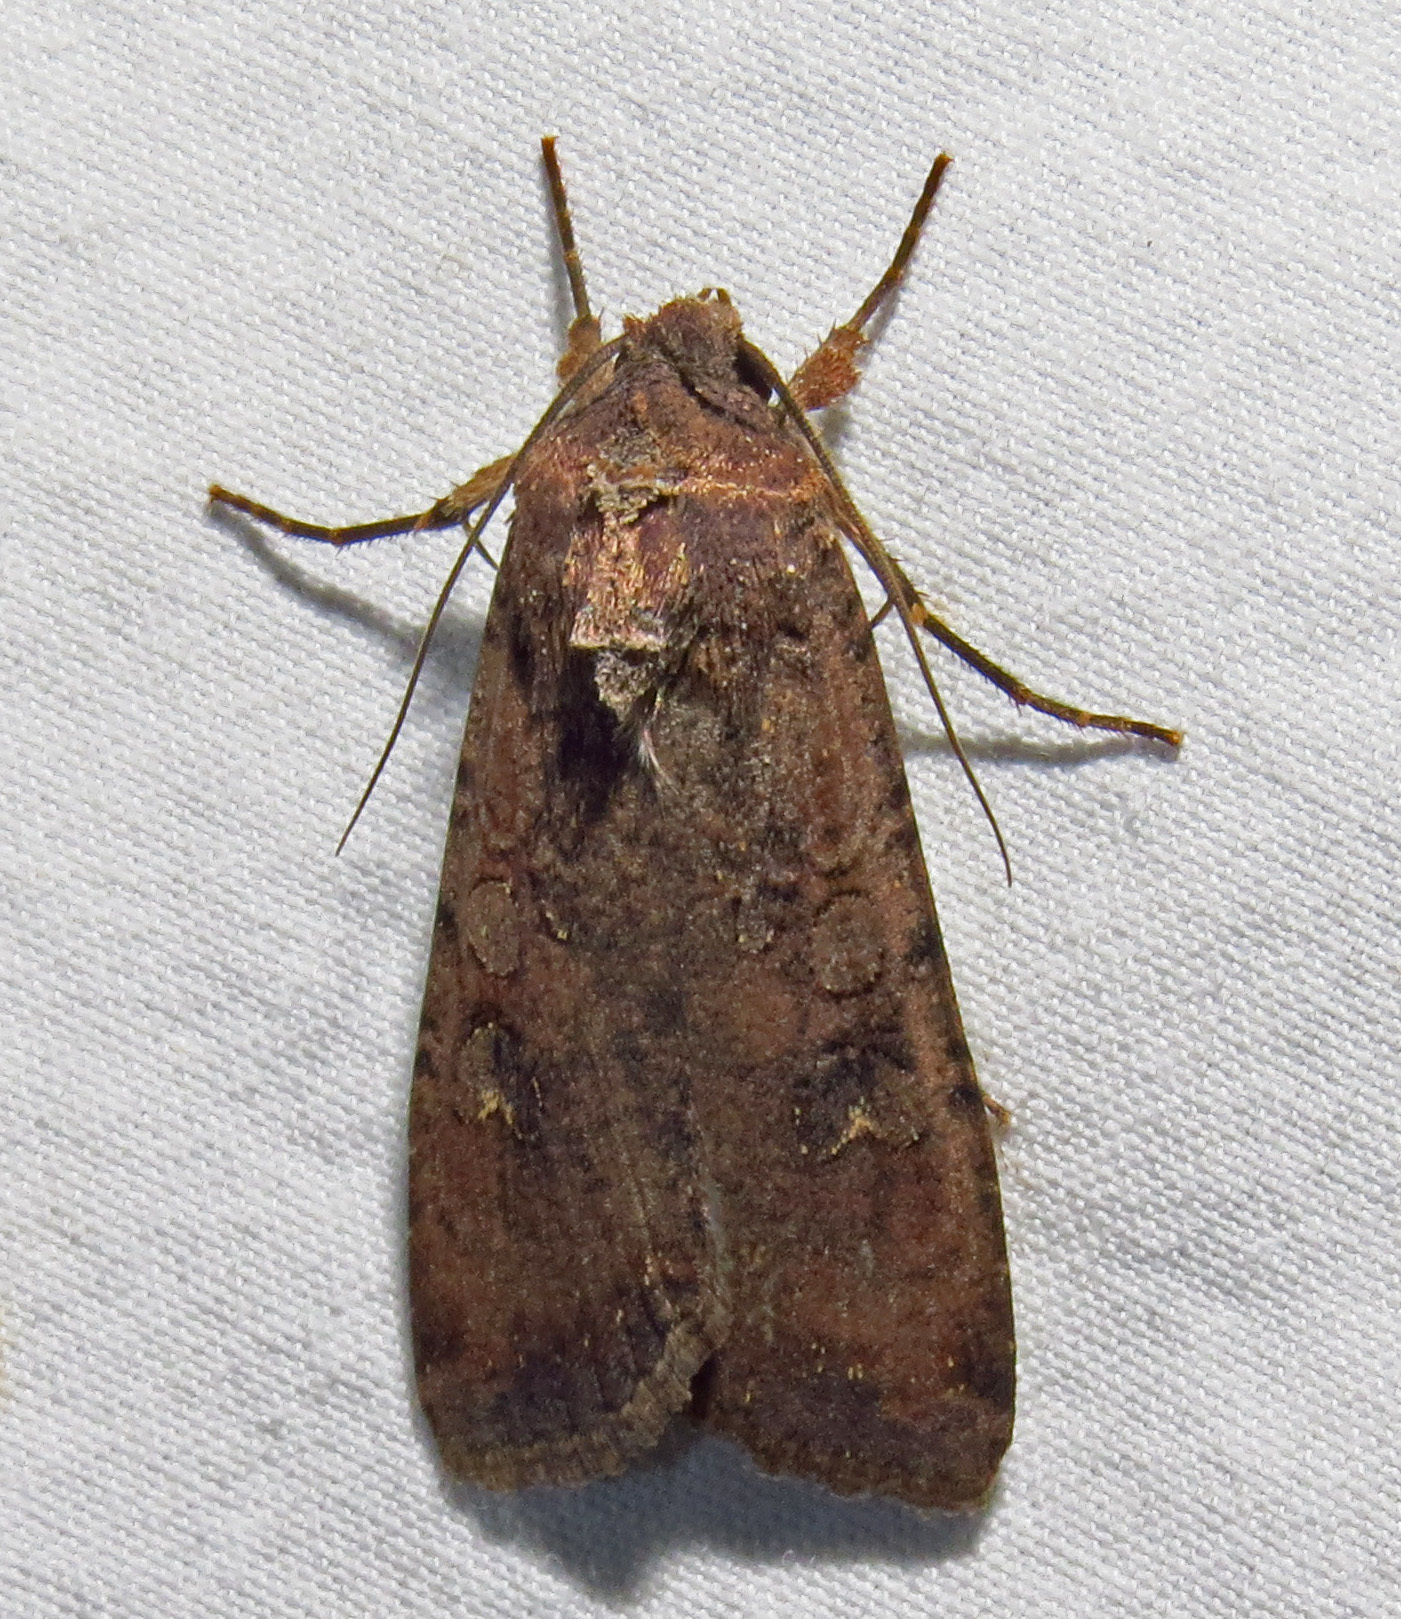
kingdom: Animalia
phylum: Arthropoda
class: Insecta
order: Lepidoptera
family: Noctuidae
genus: Peridroma
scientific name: Peridroma saucia
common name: Pearly underwing
